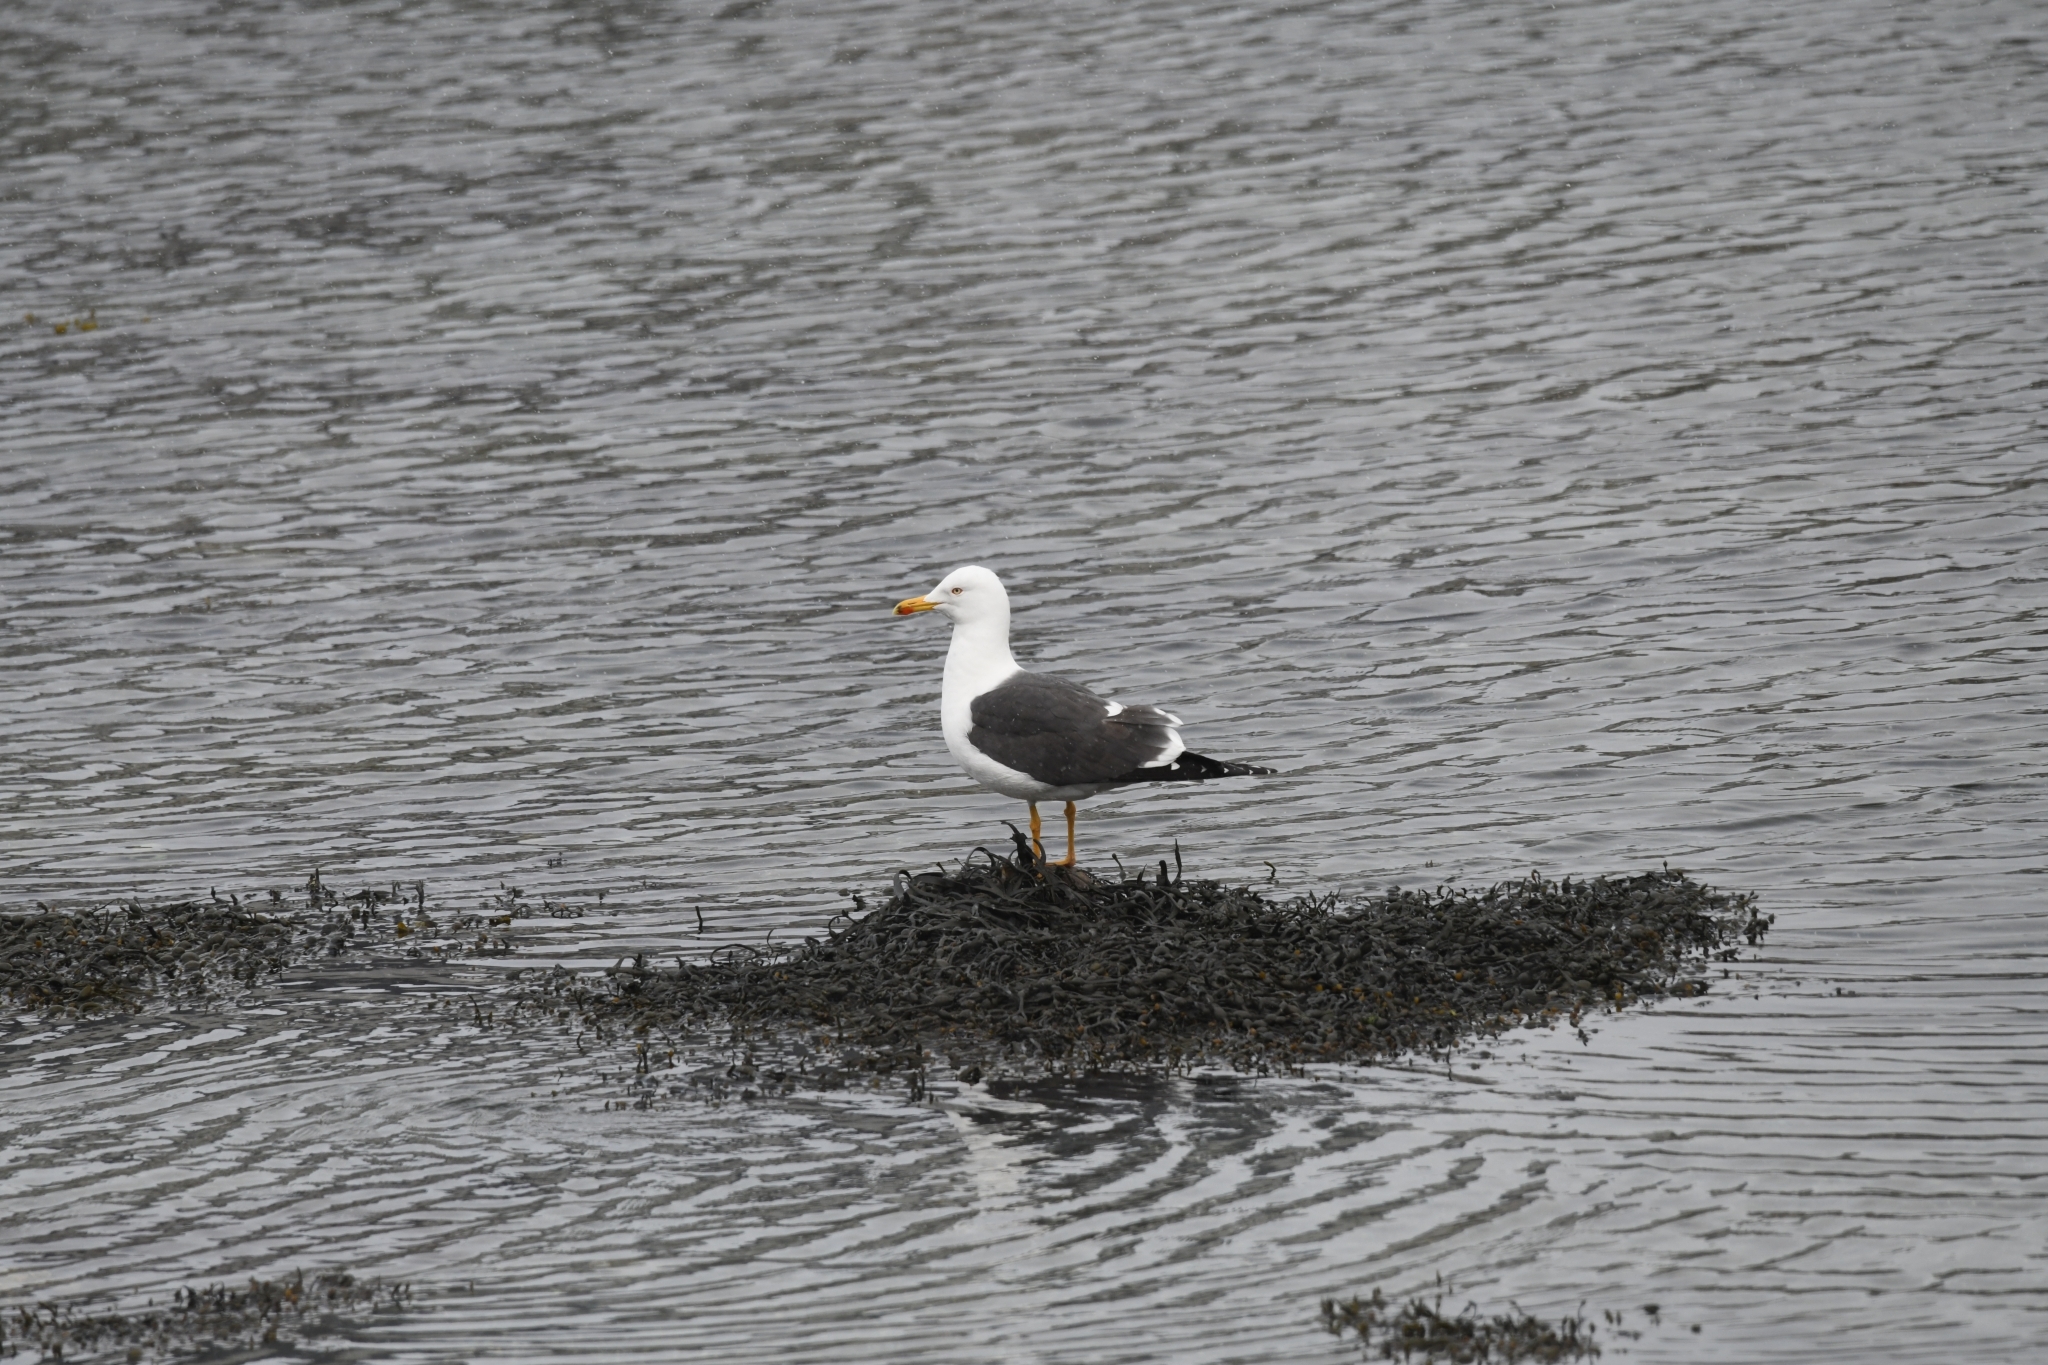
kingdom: Animalia
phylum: Chordata
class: Aves
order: Charadriiformes
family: Laridae
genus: Larus
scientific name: Larus fuscus
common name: Lesser black-backed gull
